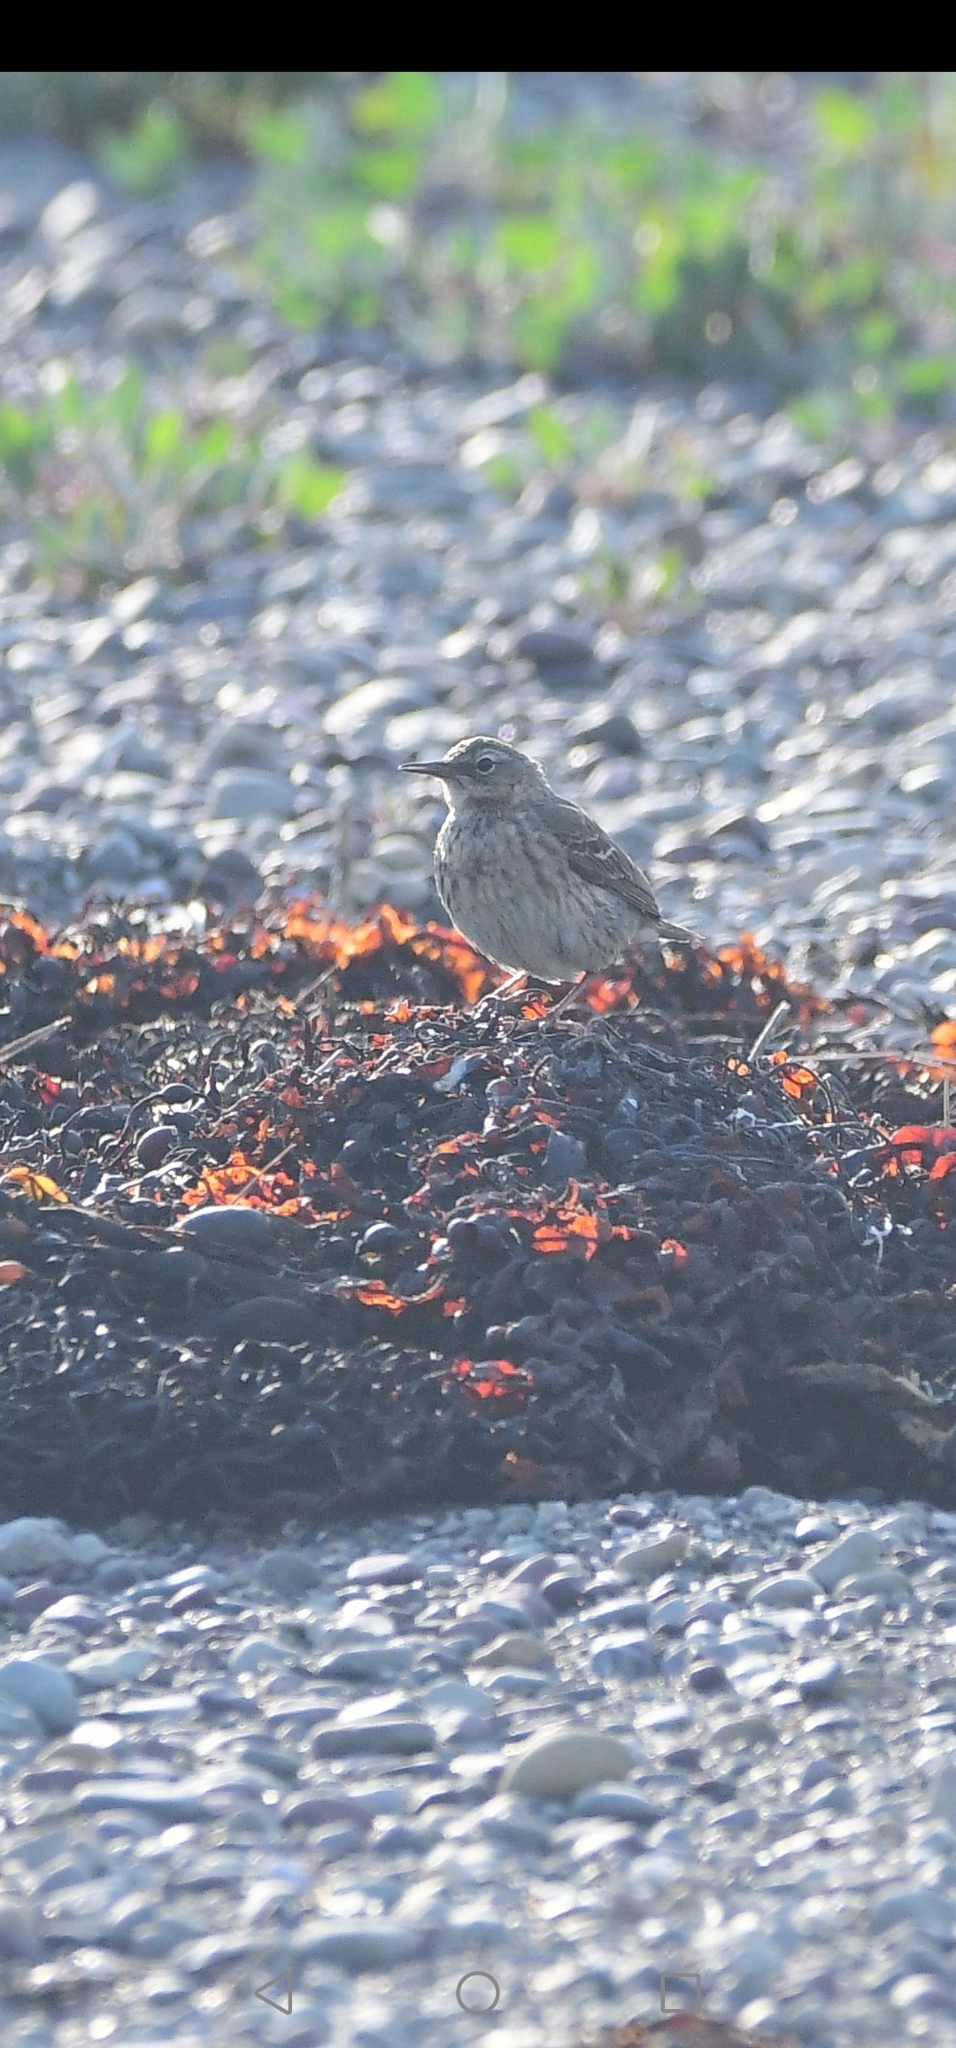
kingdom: Animalia
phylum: Chordata
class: Aves
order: Passeriformes
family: Motacillidae
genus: Anthus
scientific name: Anthus petrosus
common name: Eurasian rock pipit
